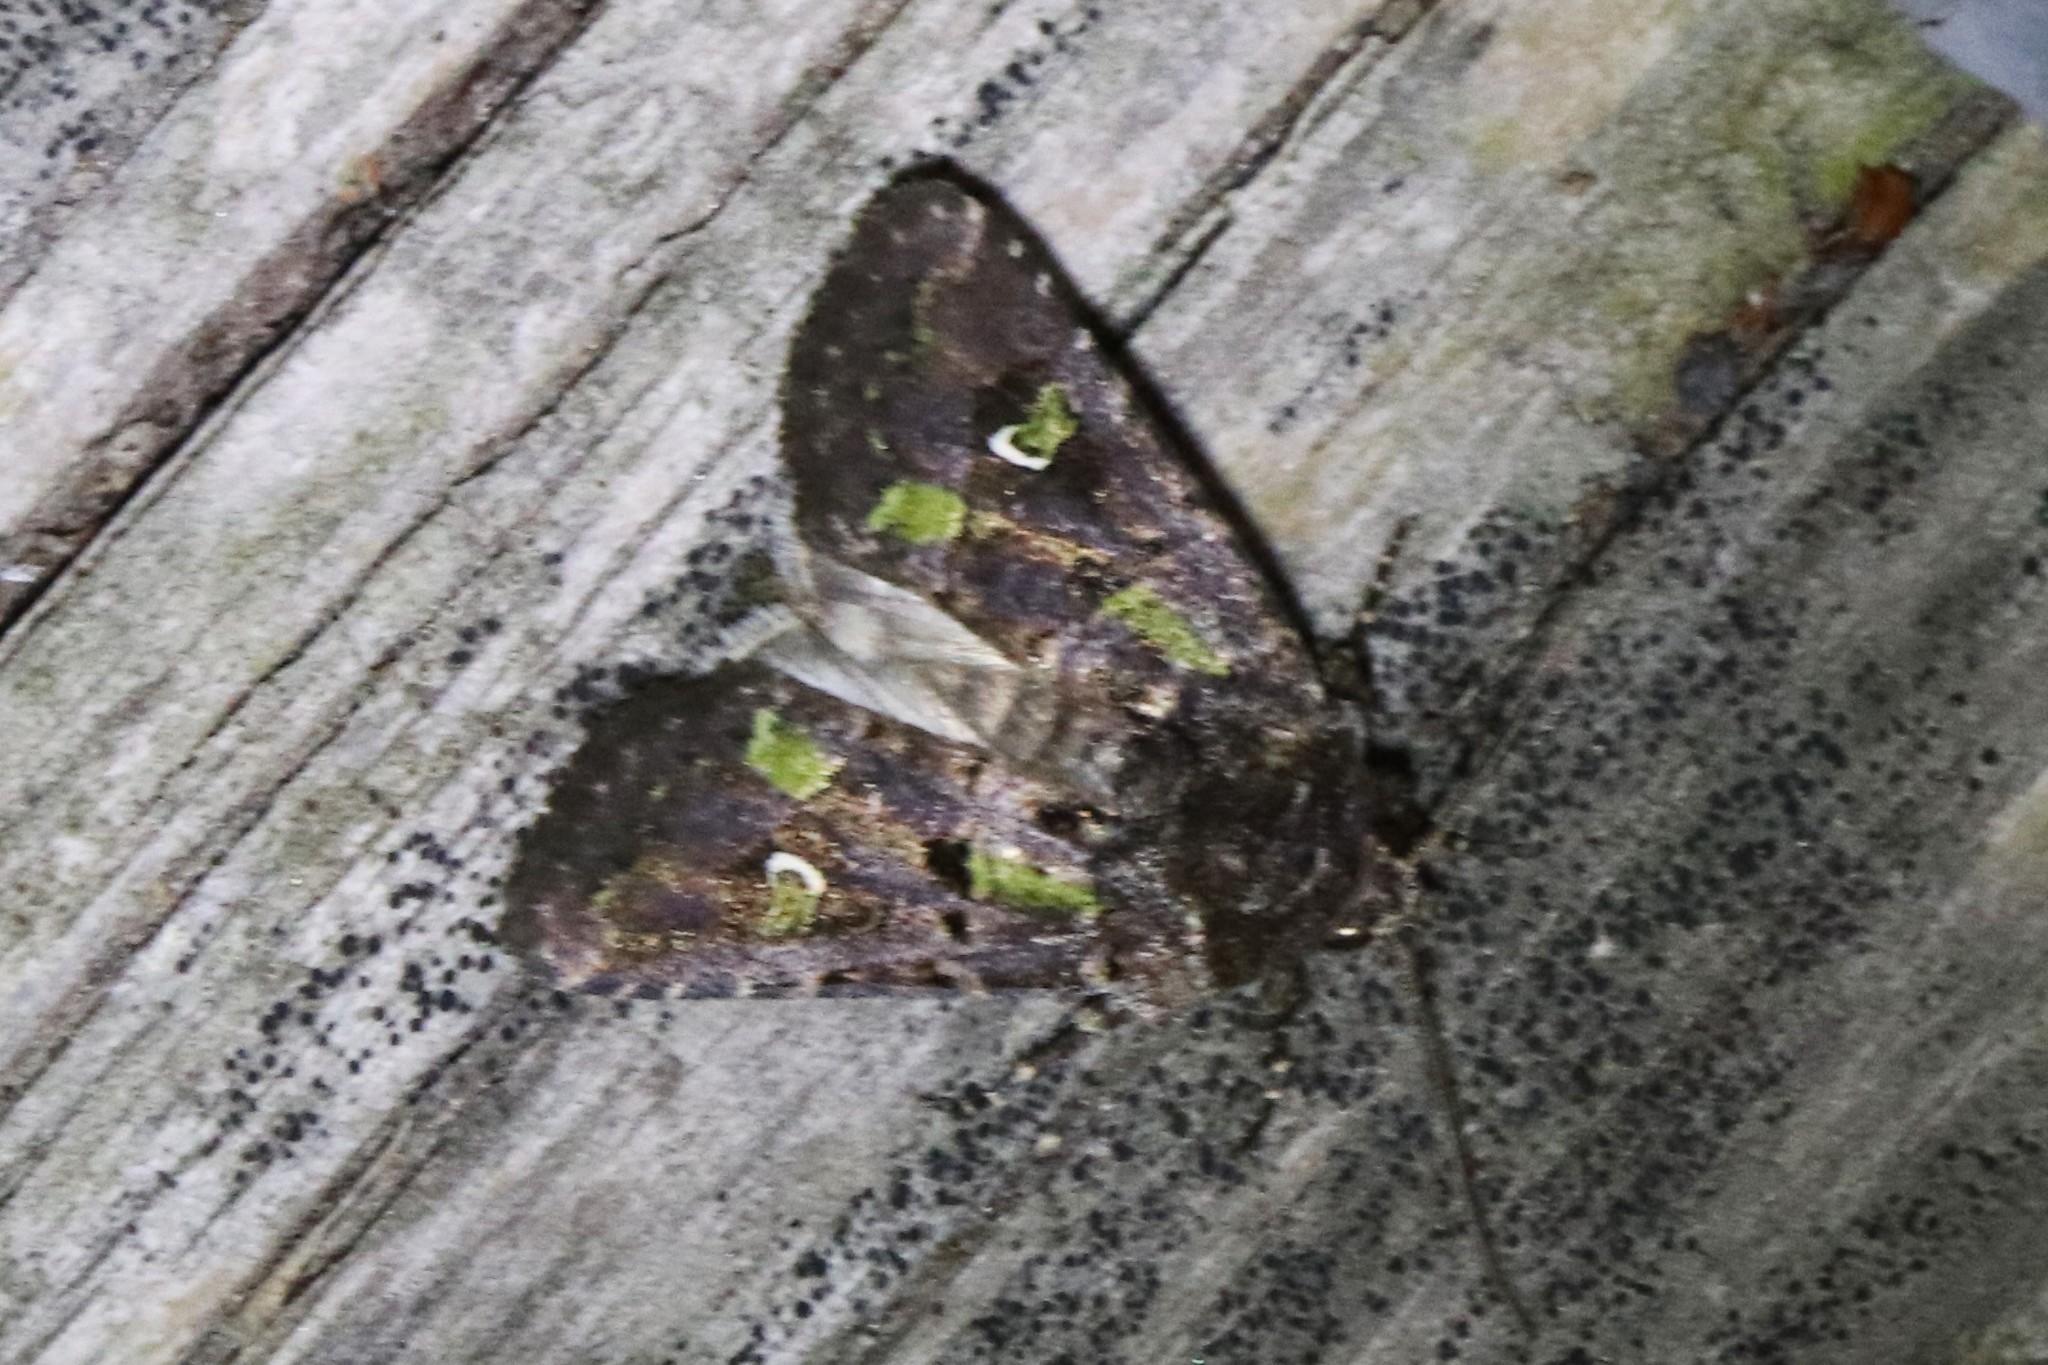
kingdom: Animalia
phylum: Arthropoda
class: Insecta
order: Lepidoptera
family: Noctuidae
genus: Lacinipolia
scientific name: Lacinipolia renigera
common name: Kidney-spotted minor
